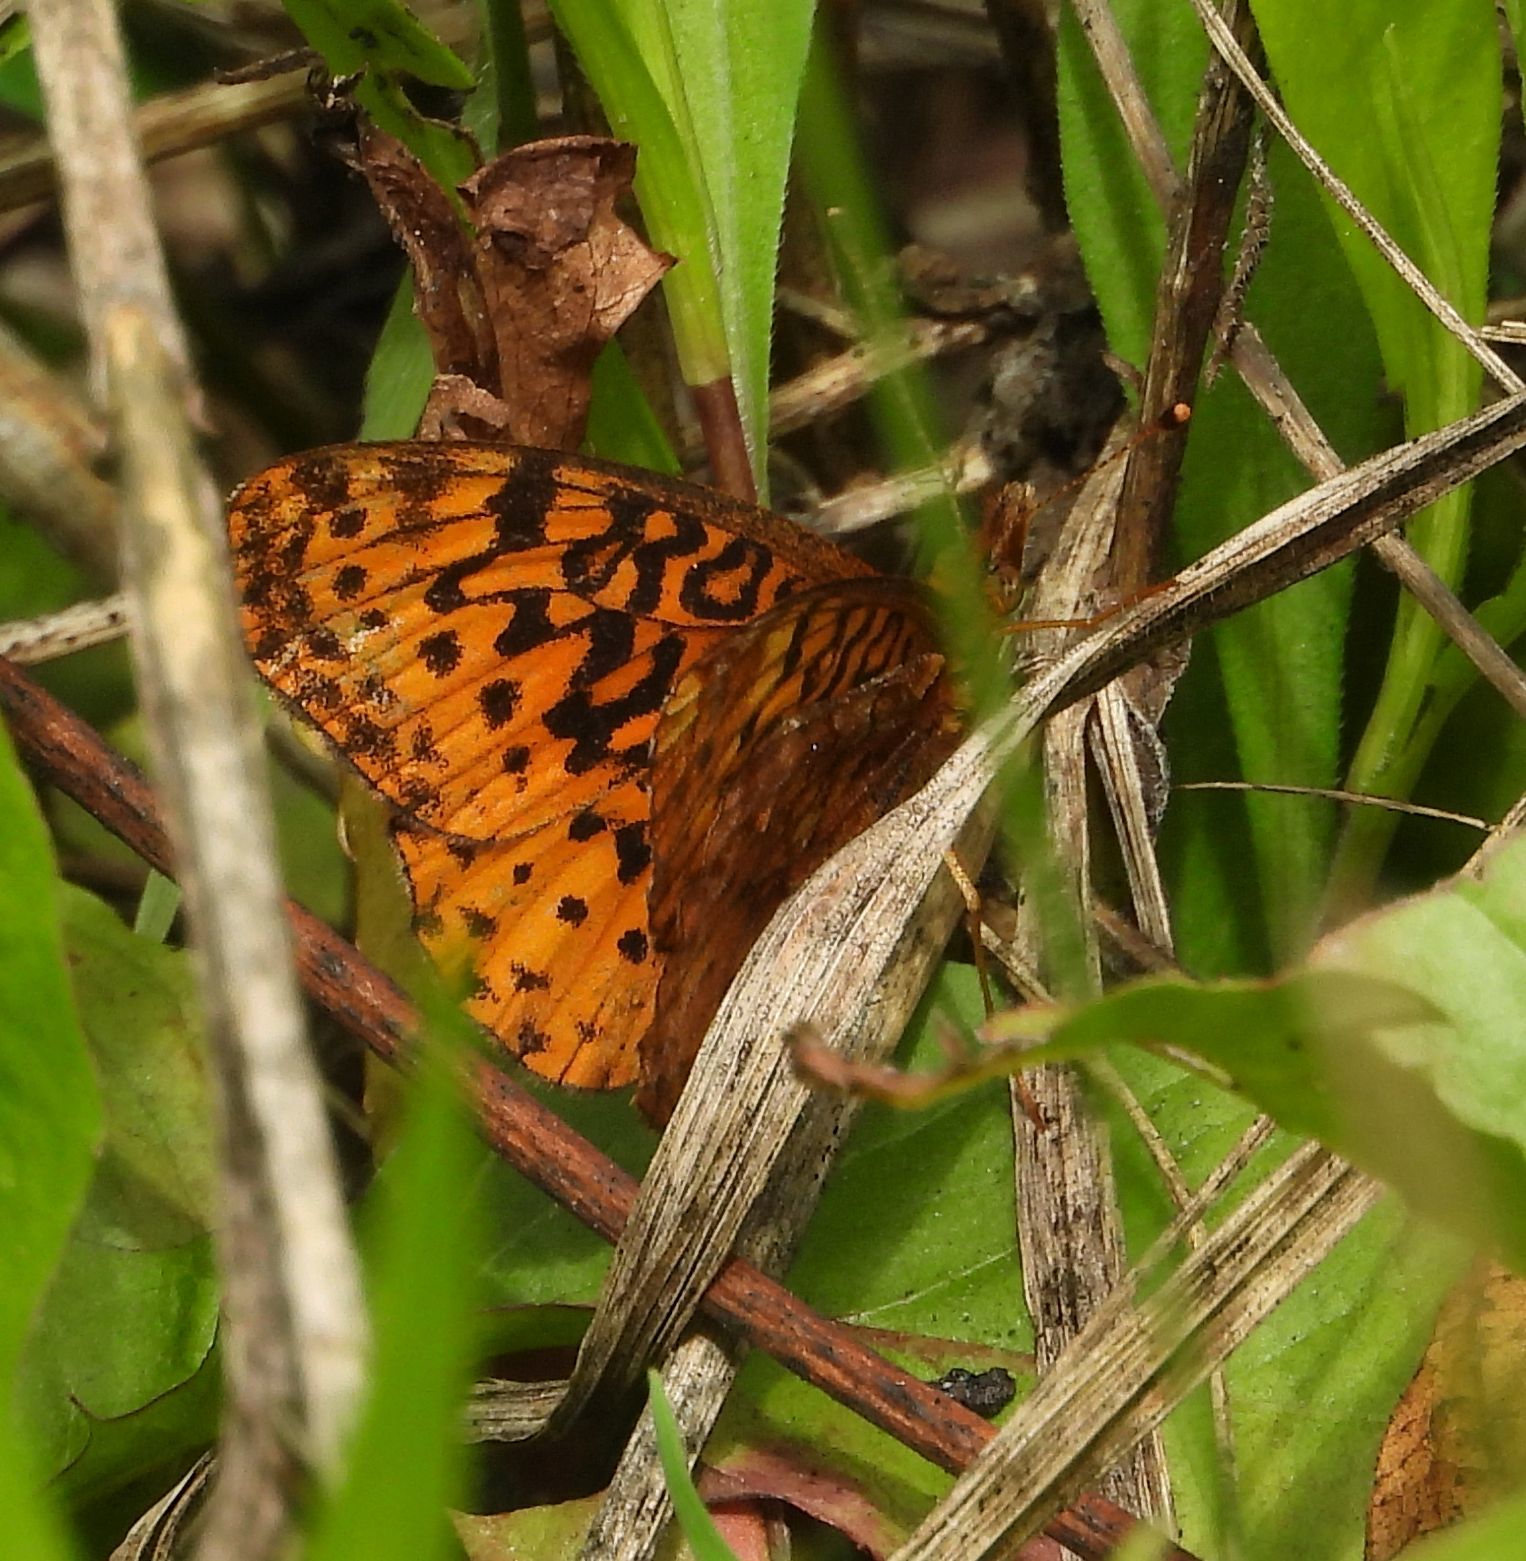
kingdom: Animalia
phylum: Arthropoda
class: Insecta
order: Lepidoptera
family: Nymphalidae
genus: Clossiana
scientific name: Clossiana toddi
